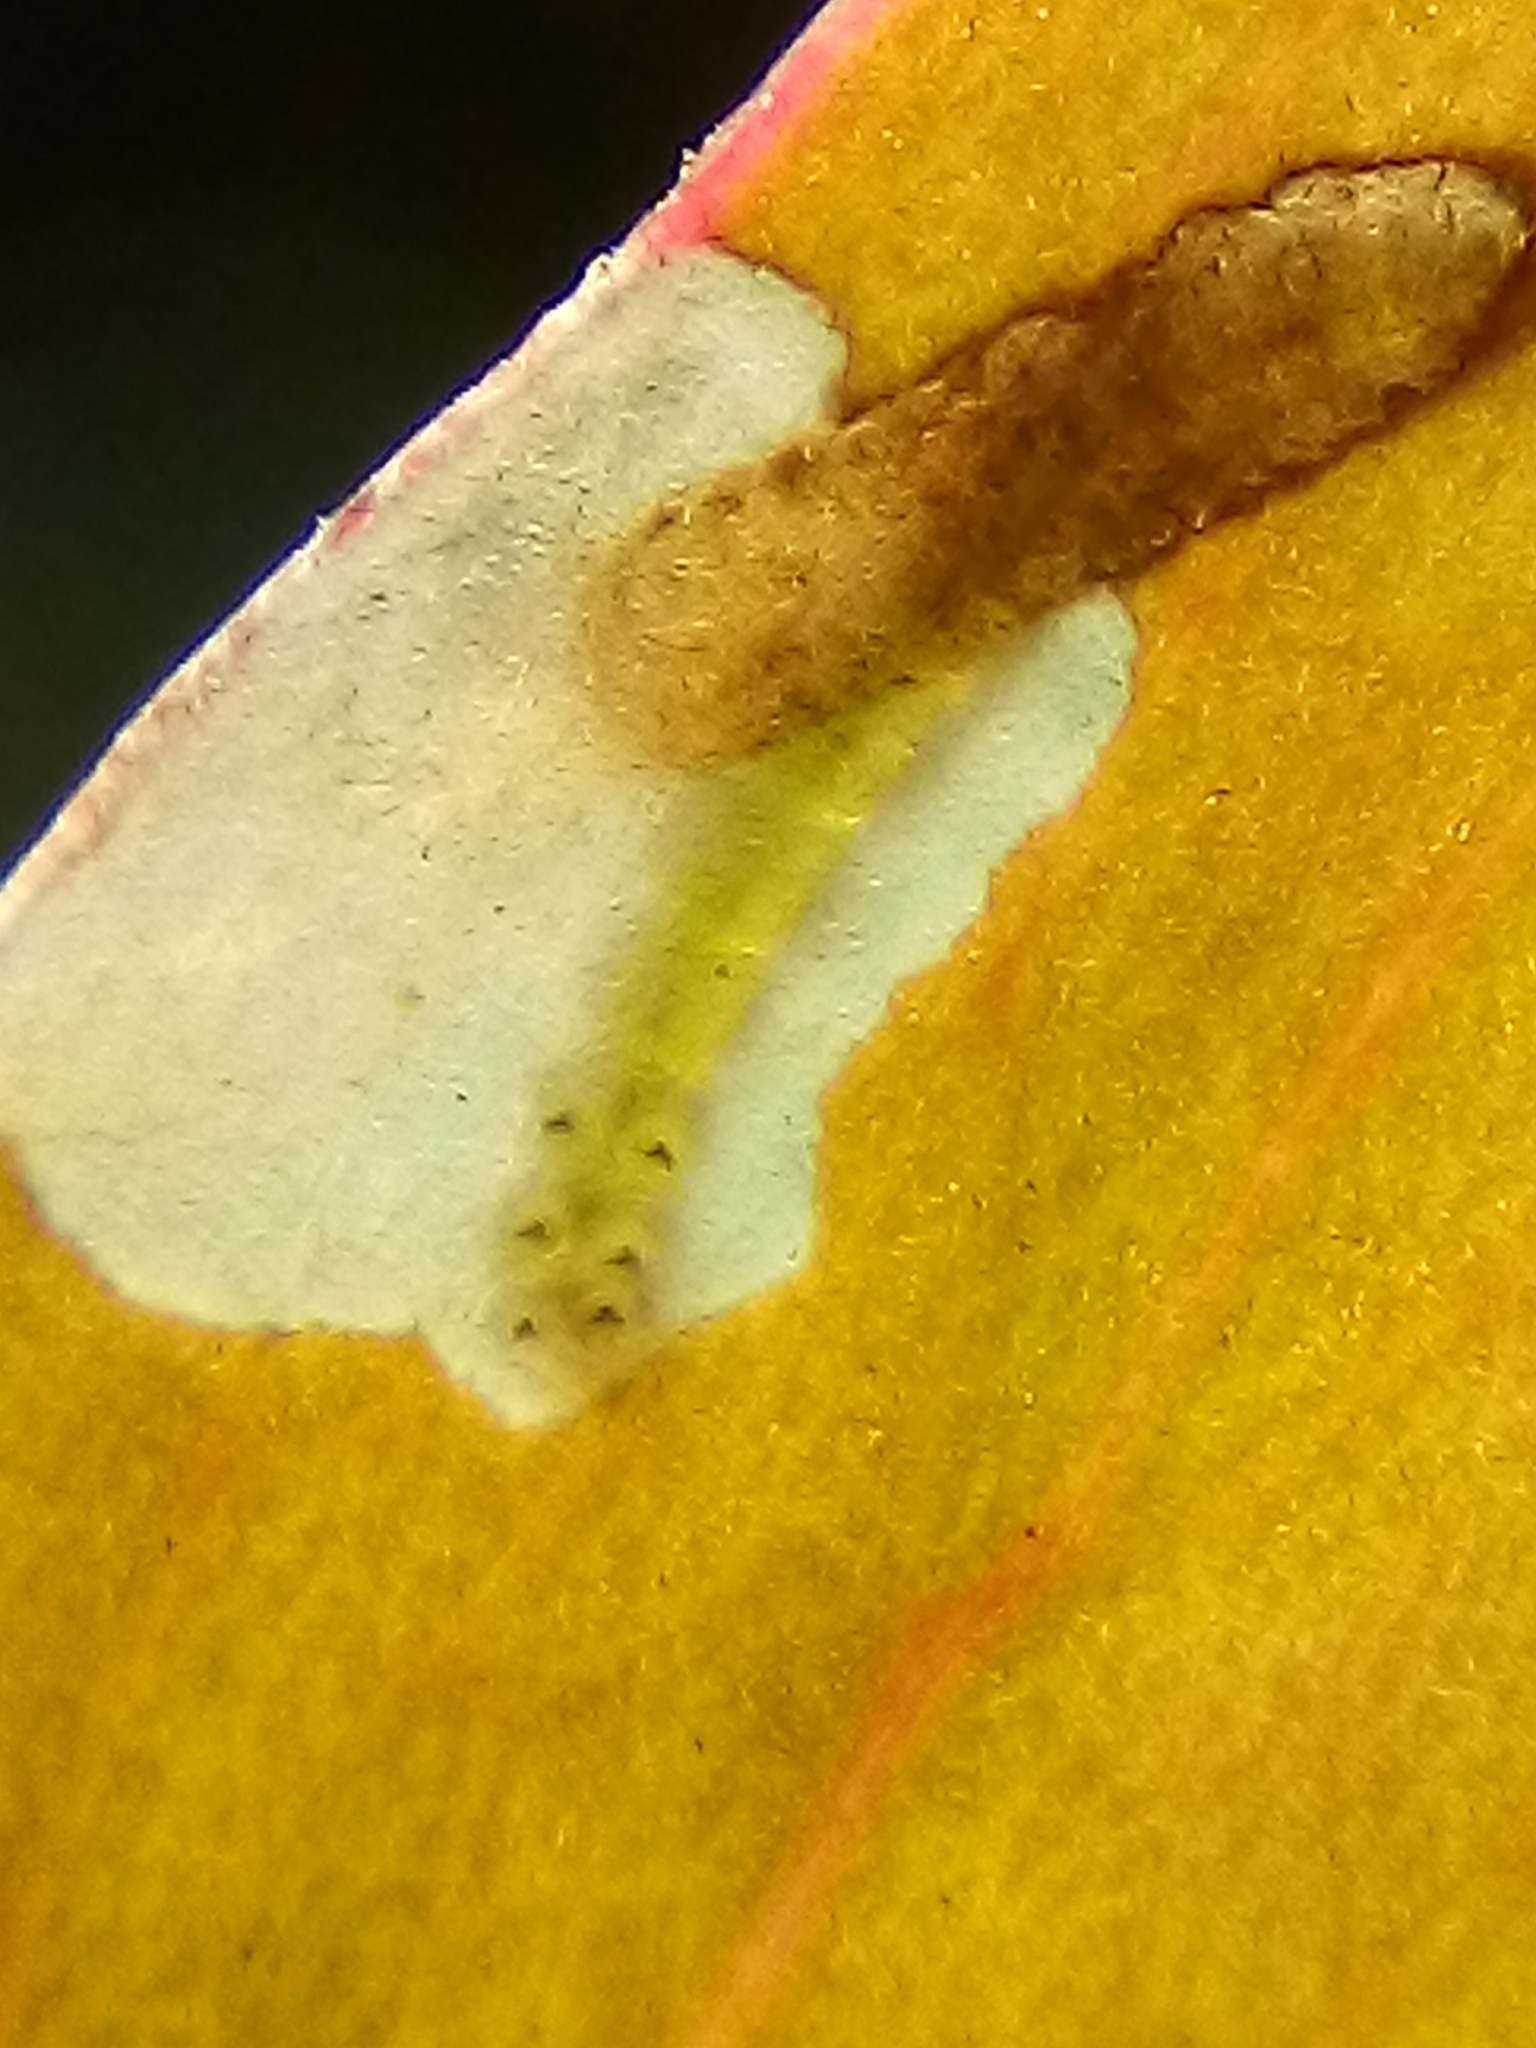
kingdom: Animalia
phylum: Arthropoda
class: Insecta
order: Lepidoptera
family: Lyonetiidae
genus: Stegommata
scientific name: Stegommata leptomitella
